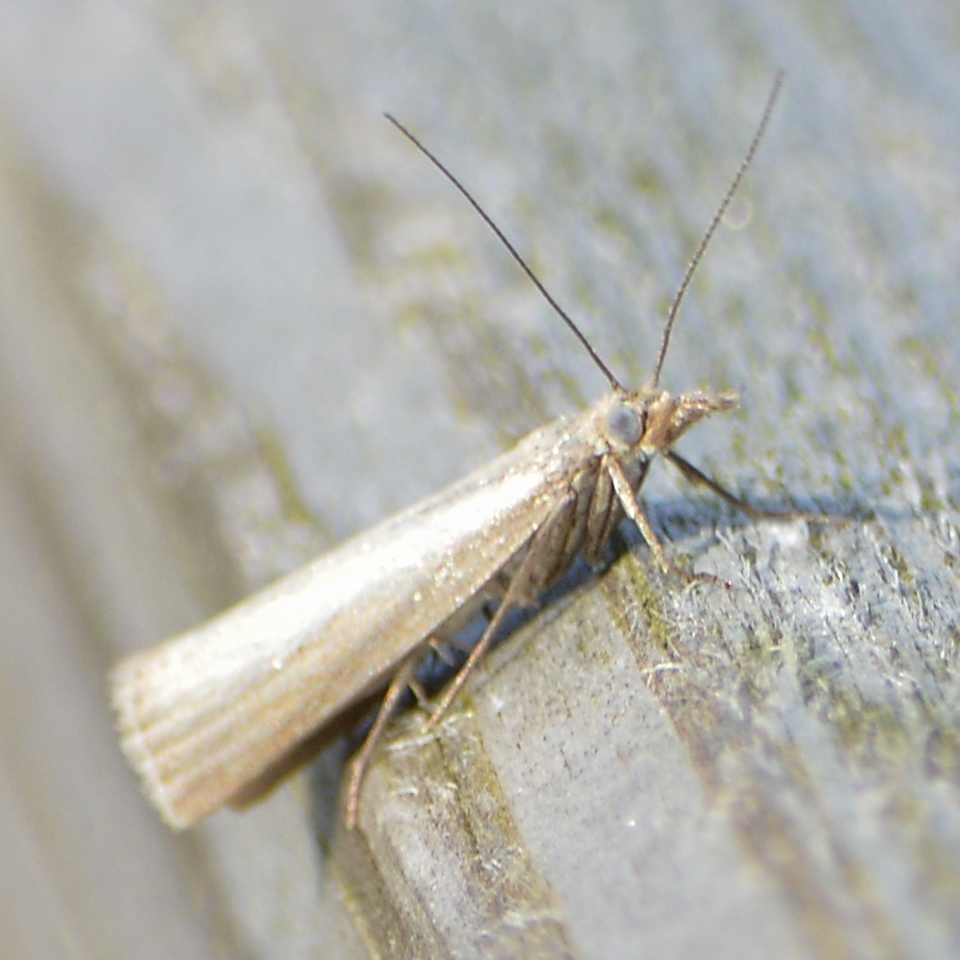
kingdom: Animalia
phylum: Arthropoda
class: Insecta
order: Lepidoptera
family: Crambidae
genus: Agriphila
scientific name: Agriphila straminella
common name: Straw grass-veneer
